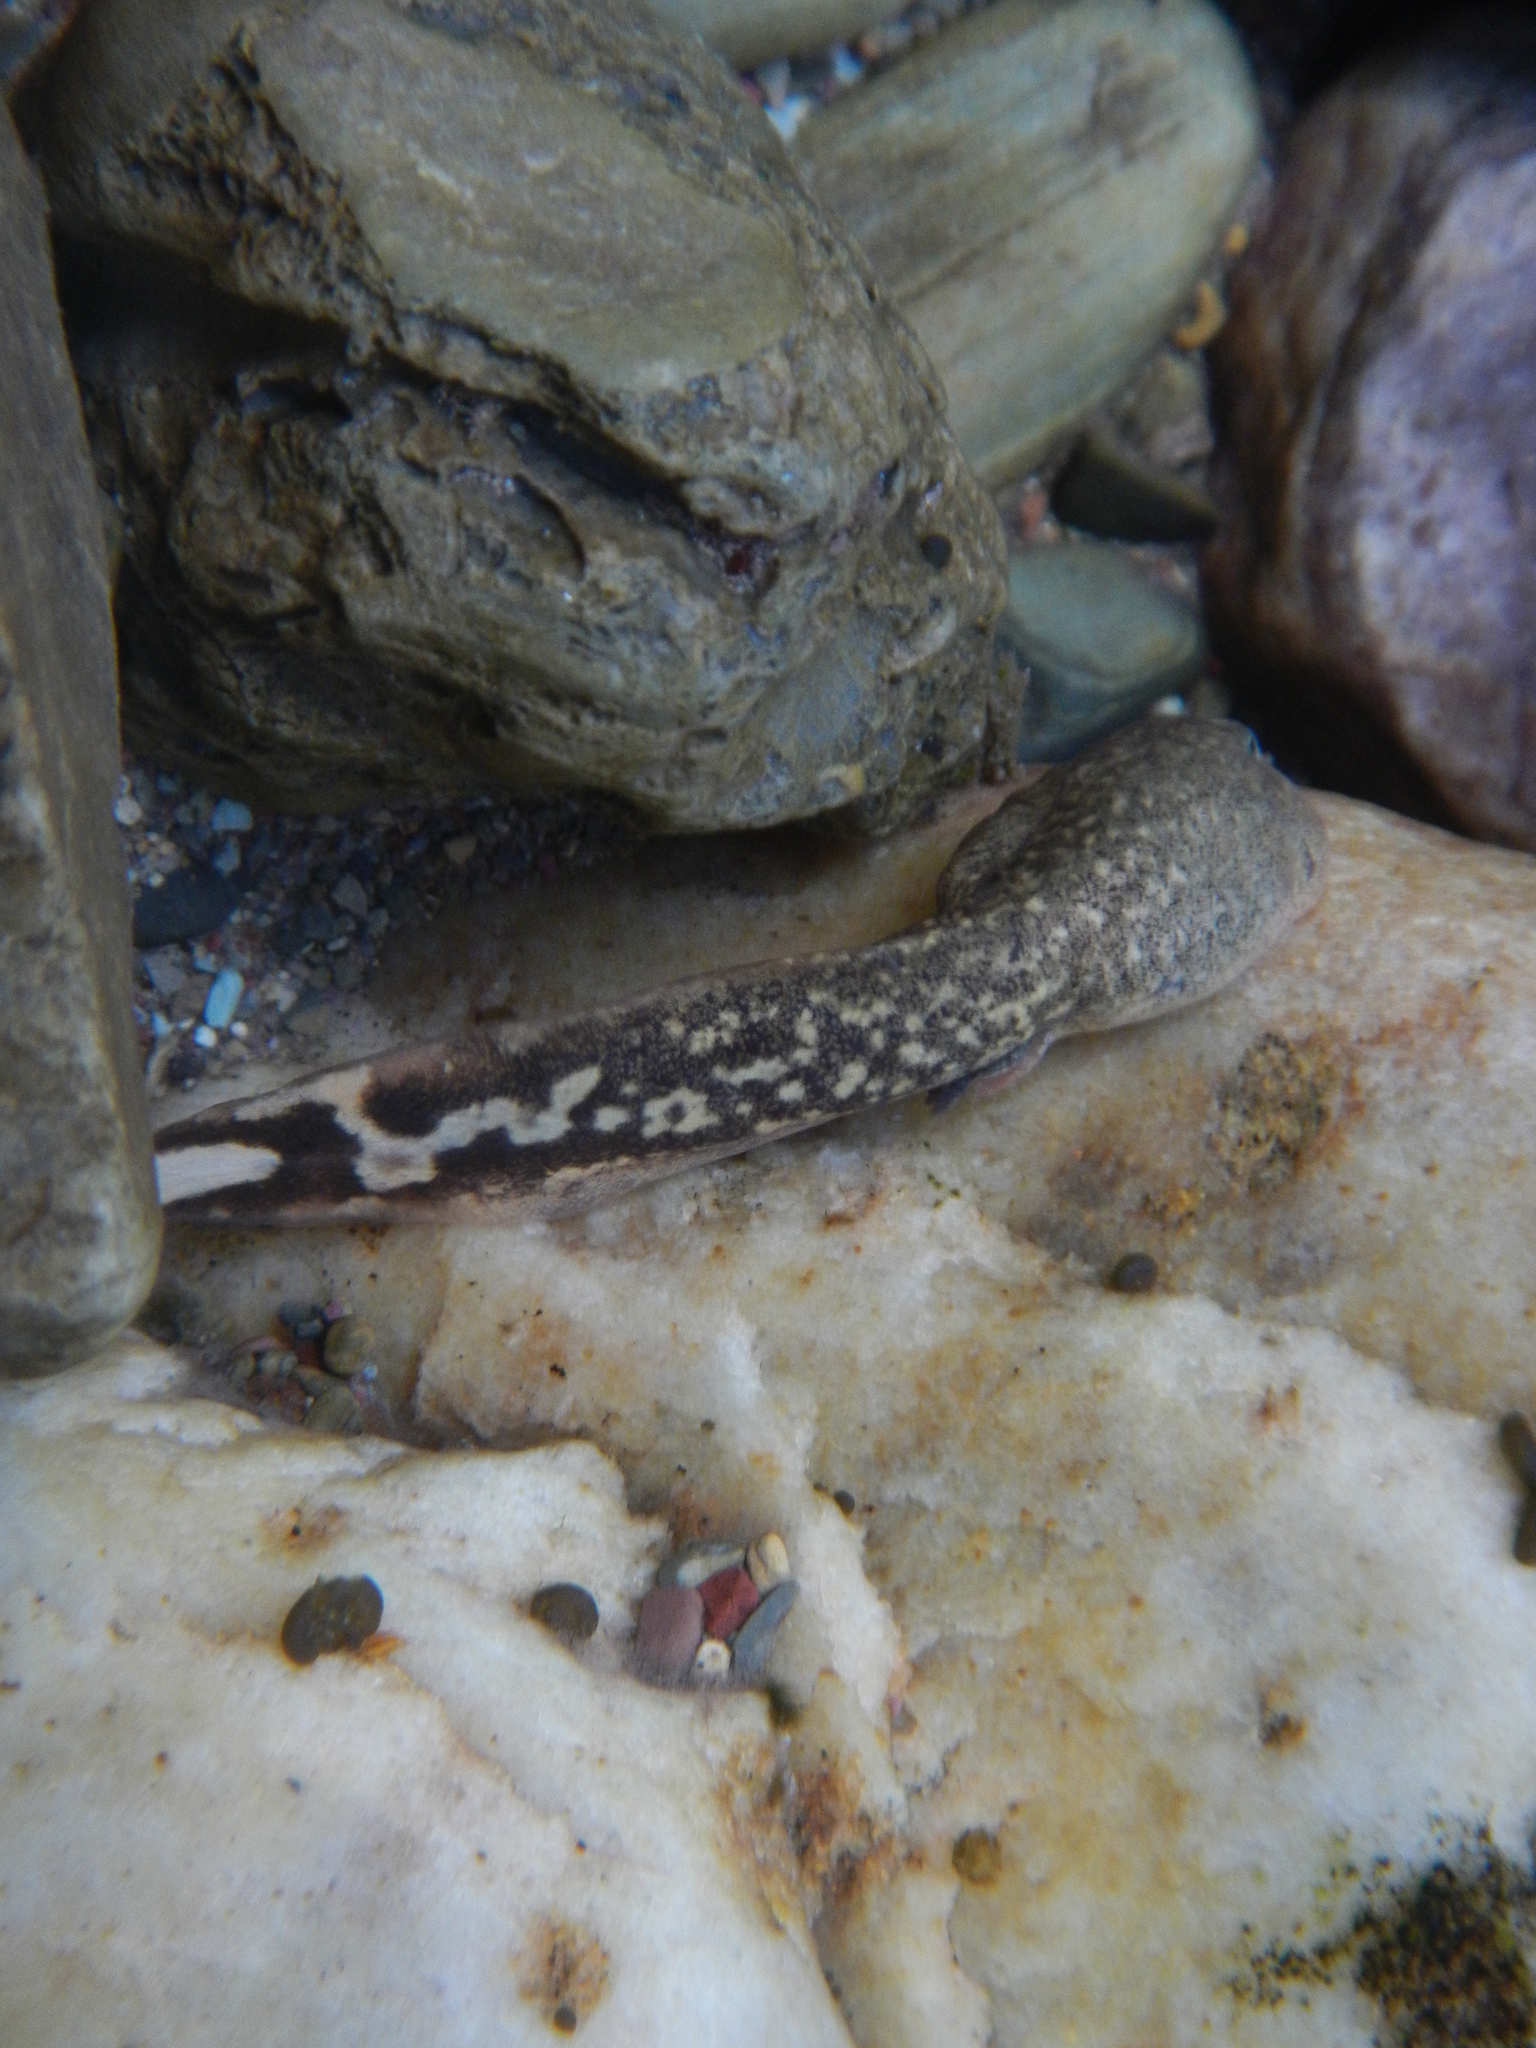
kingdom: Animalia
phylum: Chordata
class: Amphibia
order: Anura
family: Ascaphidae
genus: Ascaphus
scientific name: Ascaphus montanus
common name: Rocky mountain tailed frog
